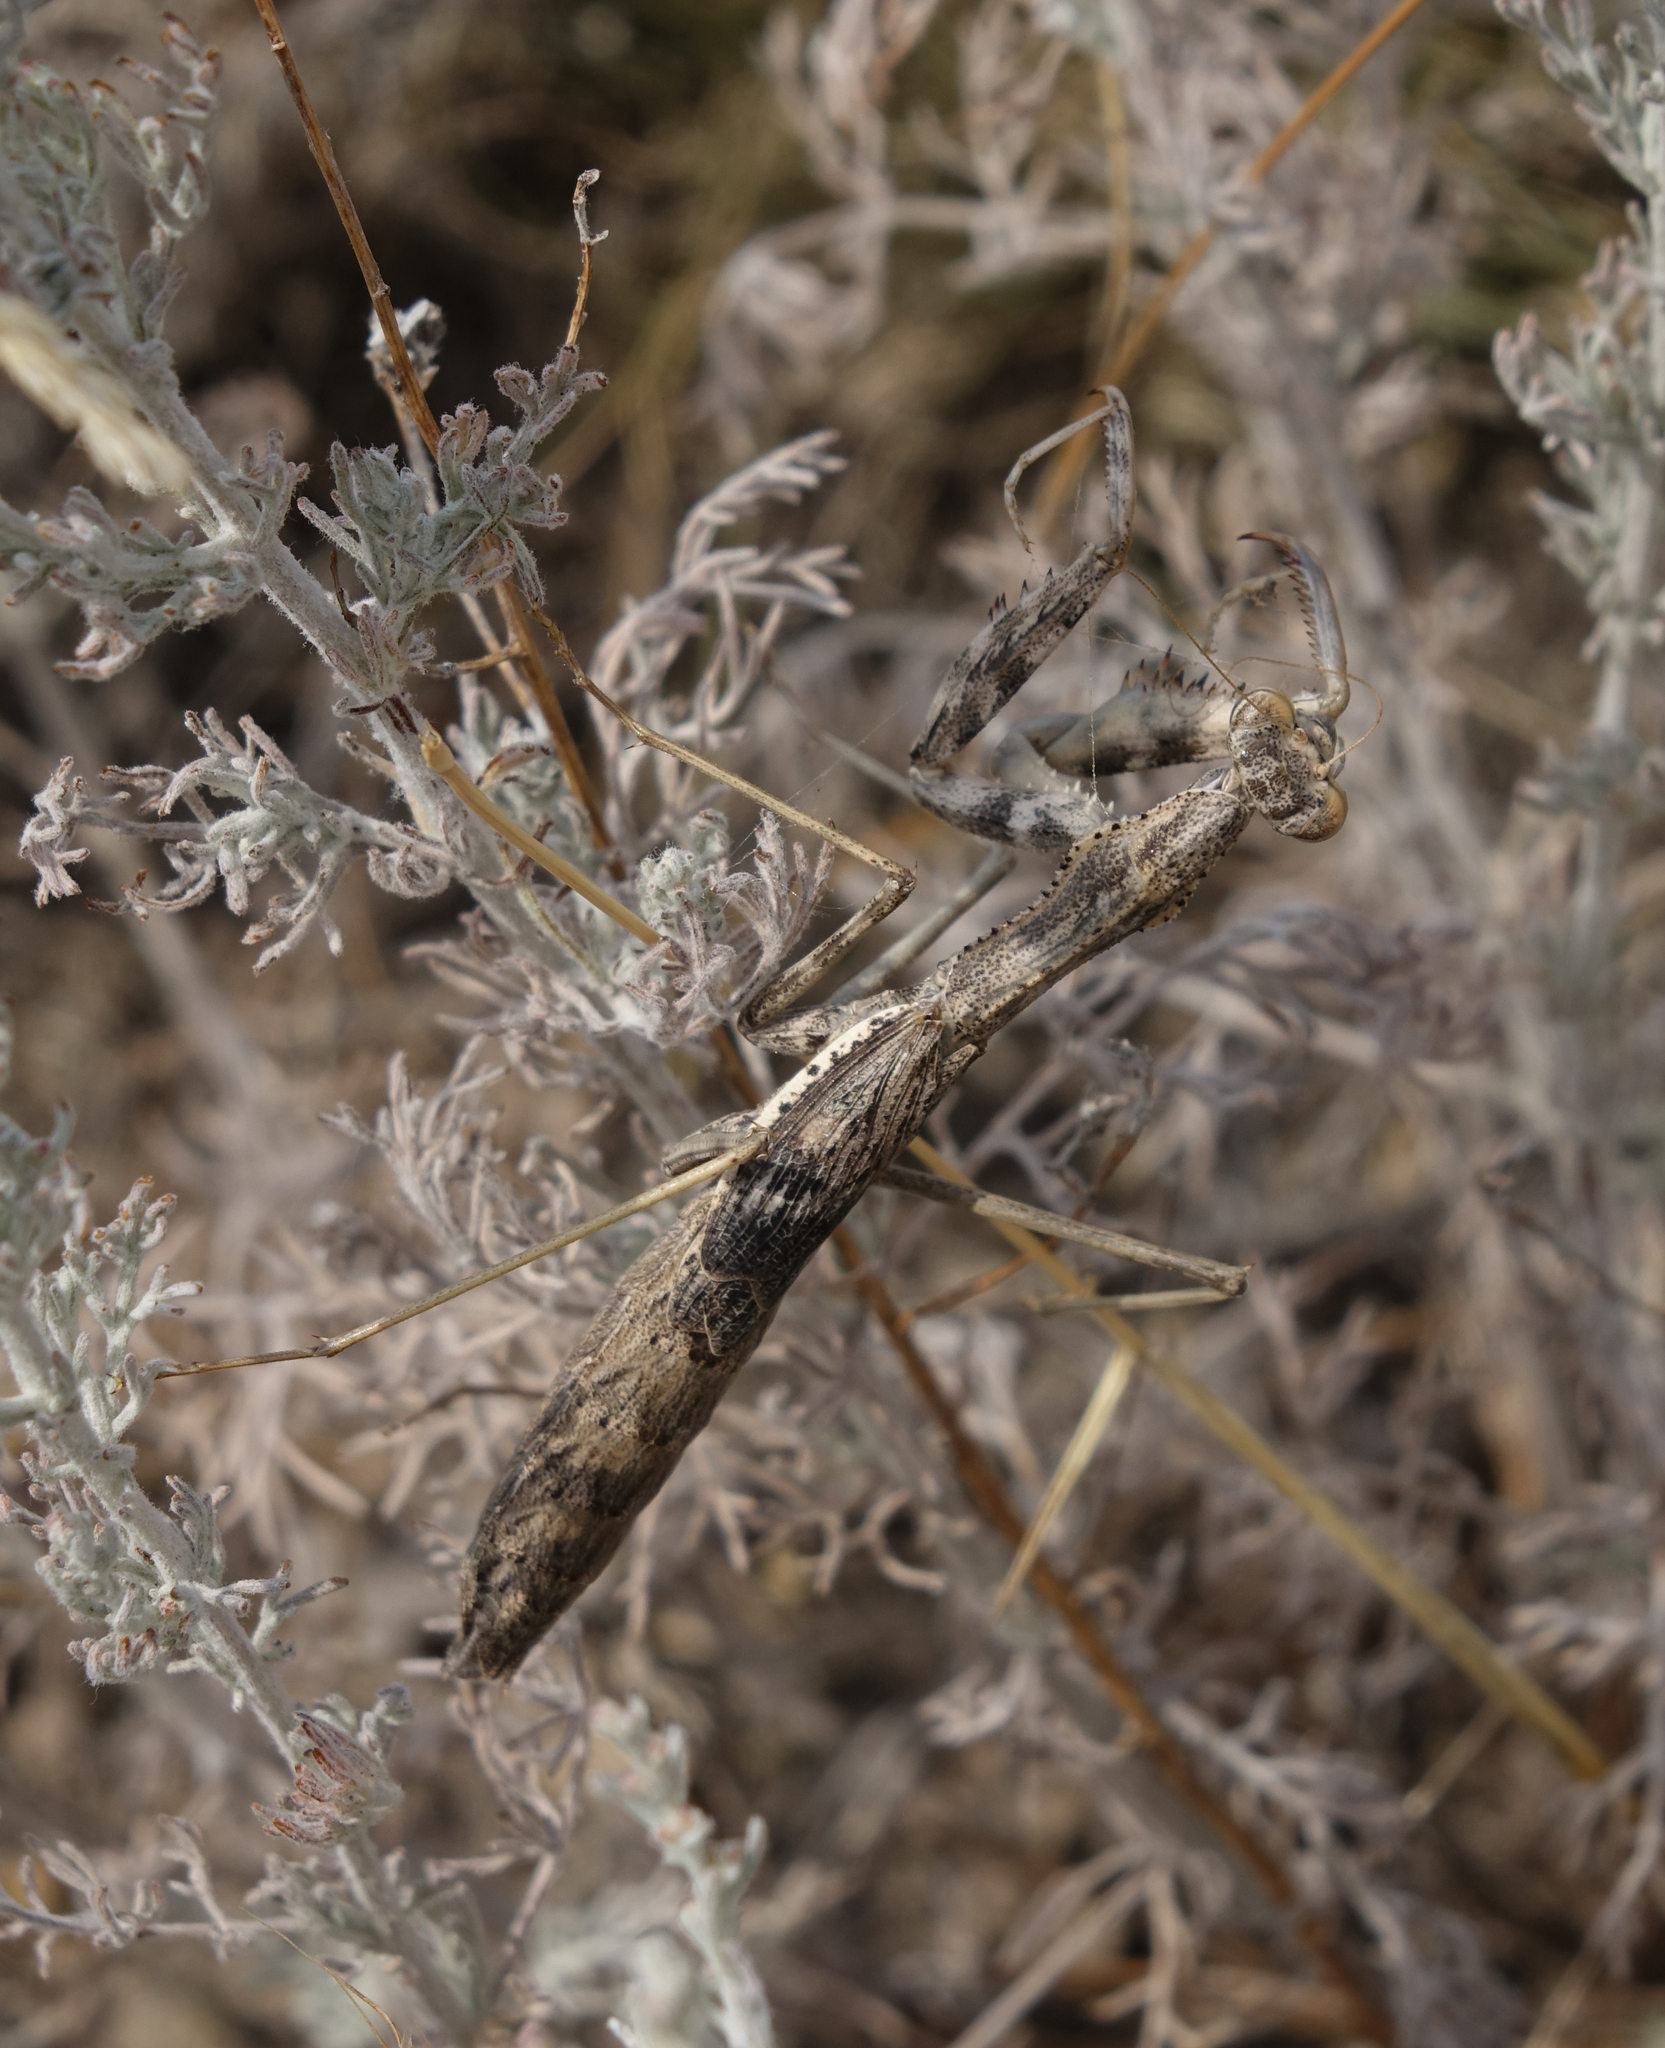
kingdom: Animalia
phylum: Arthropoda
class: Insecta
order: Mantodea
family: Rivetinidae
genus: Bolivaria
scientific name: Bolivaria brachyptera
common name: Bolivar's short winged mantis
